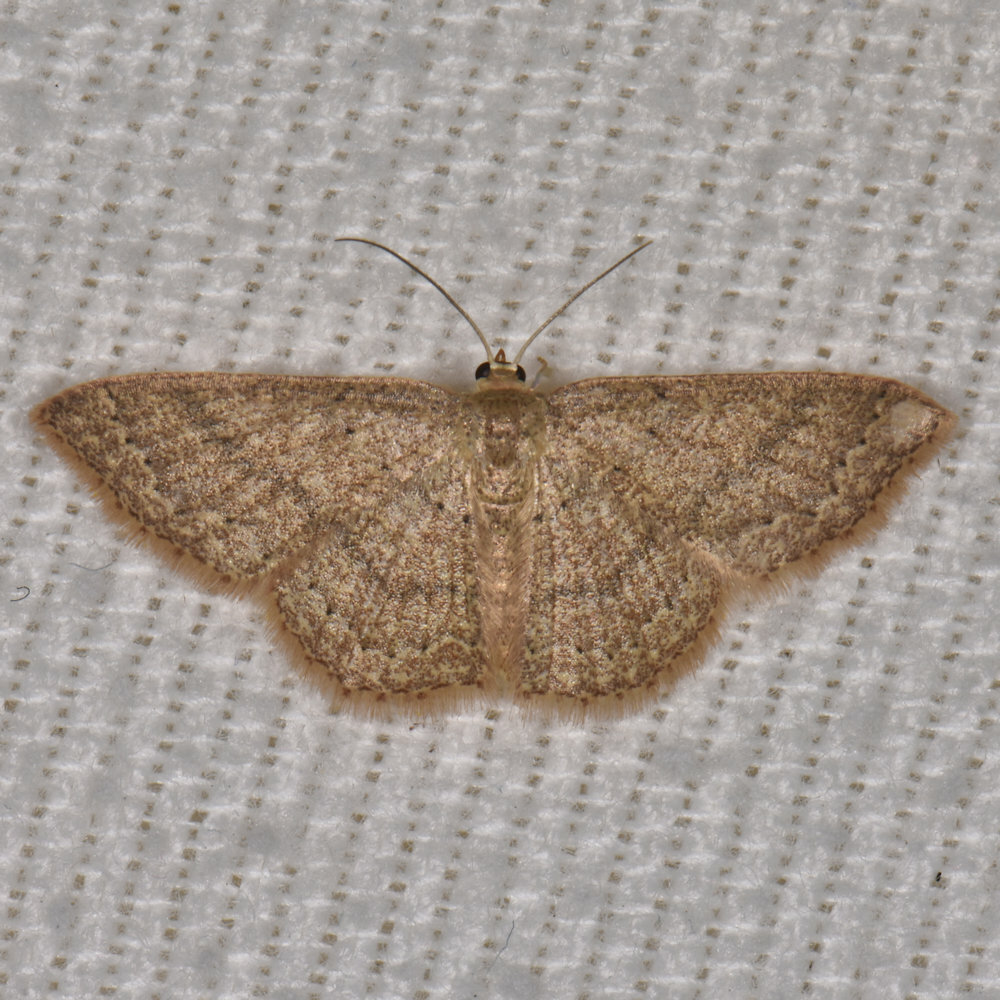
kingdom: Animalia
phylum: Arthropoda
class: Insecta
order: Lepidoptera
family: Geometridae
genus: Pleuroprucha
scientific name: Pleuroprucha insulsaria
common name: Common tan wave
